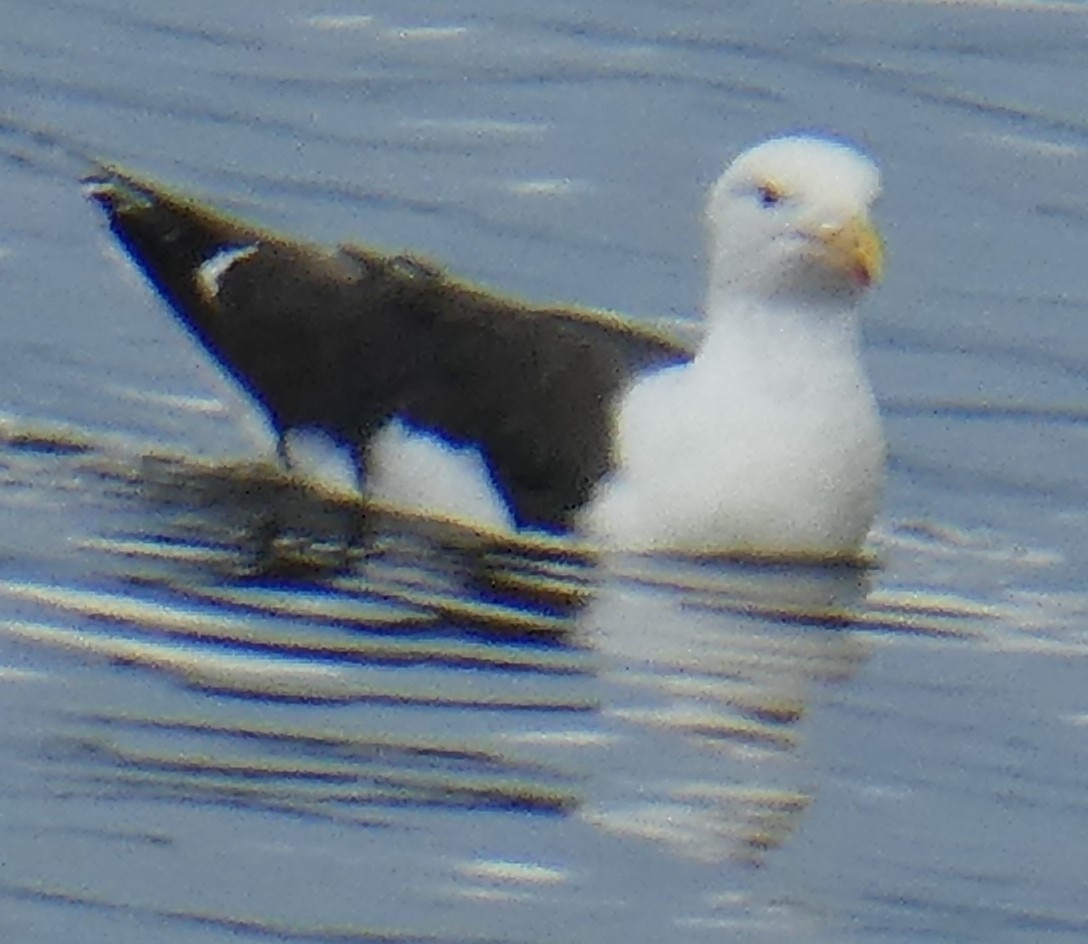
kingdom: Animalia
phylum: Chordata
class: Aves
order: Charadriiformes
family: Laridae
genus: Larus
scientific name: Larus marinus
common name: Great black-backed gull
